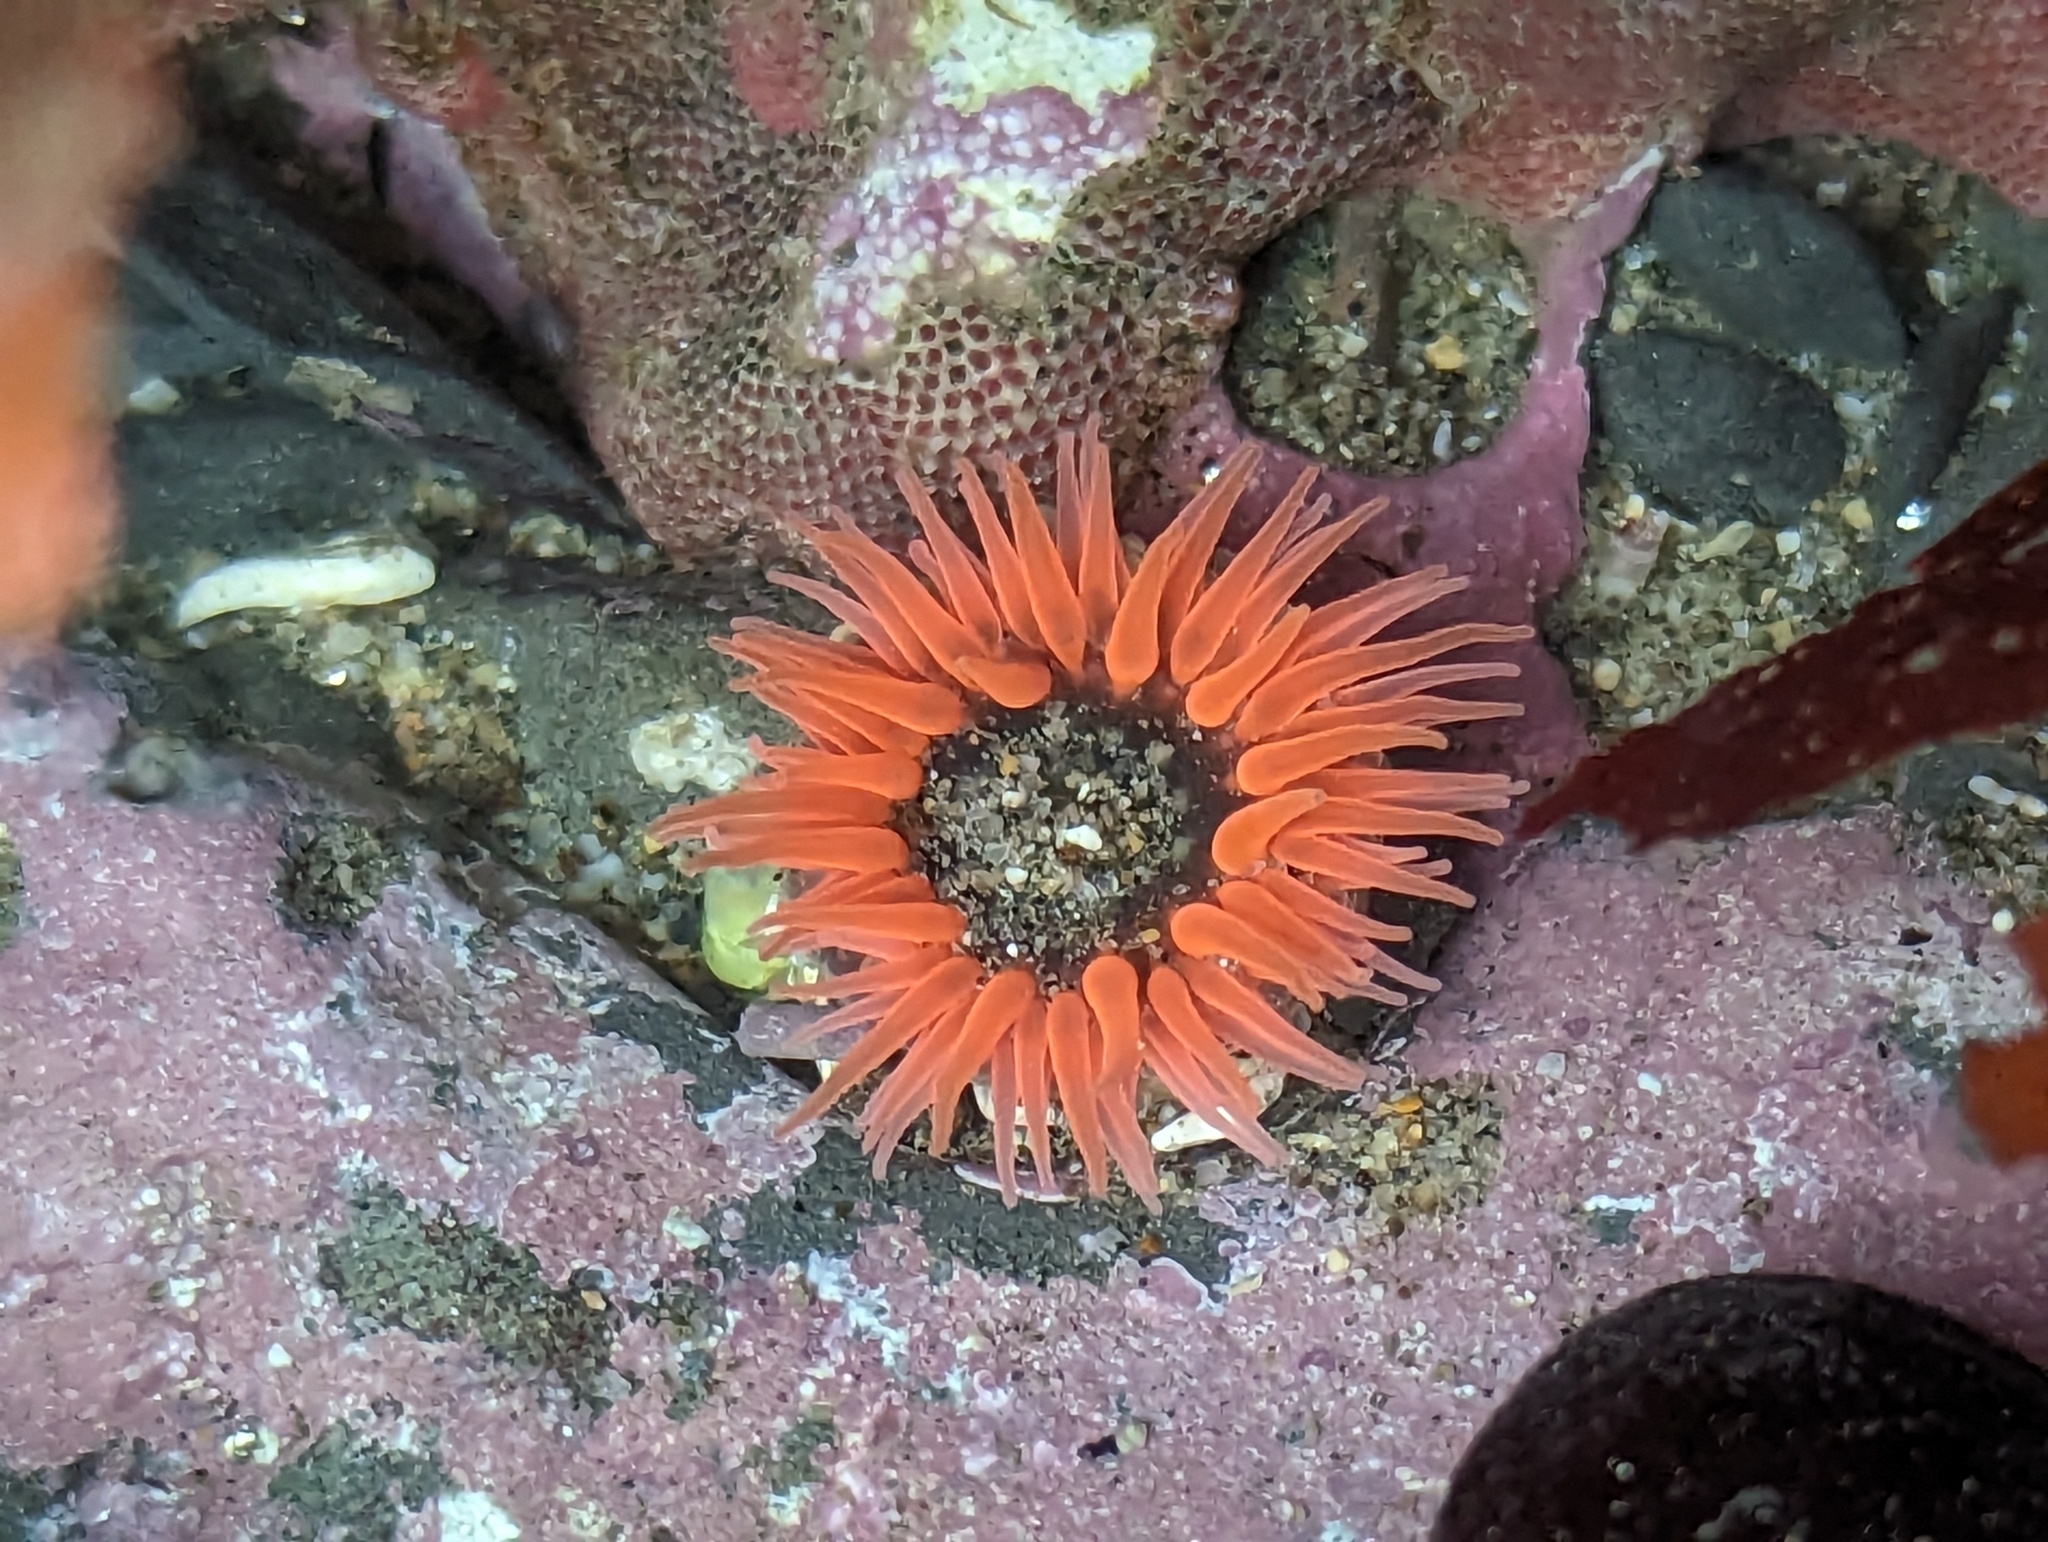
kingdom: Animalia
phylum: Cnidaria
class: Anthozoa
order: Actiniaria
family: Actiniidae
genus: Anthopleura
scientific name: Anthopleura artemisia
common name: Buried sea anemone
